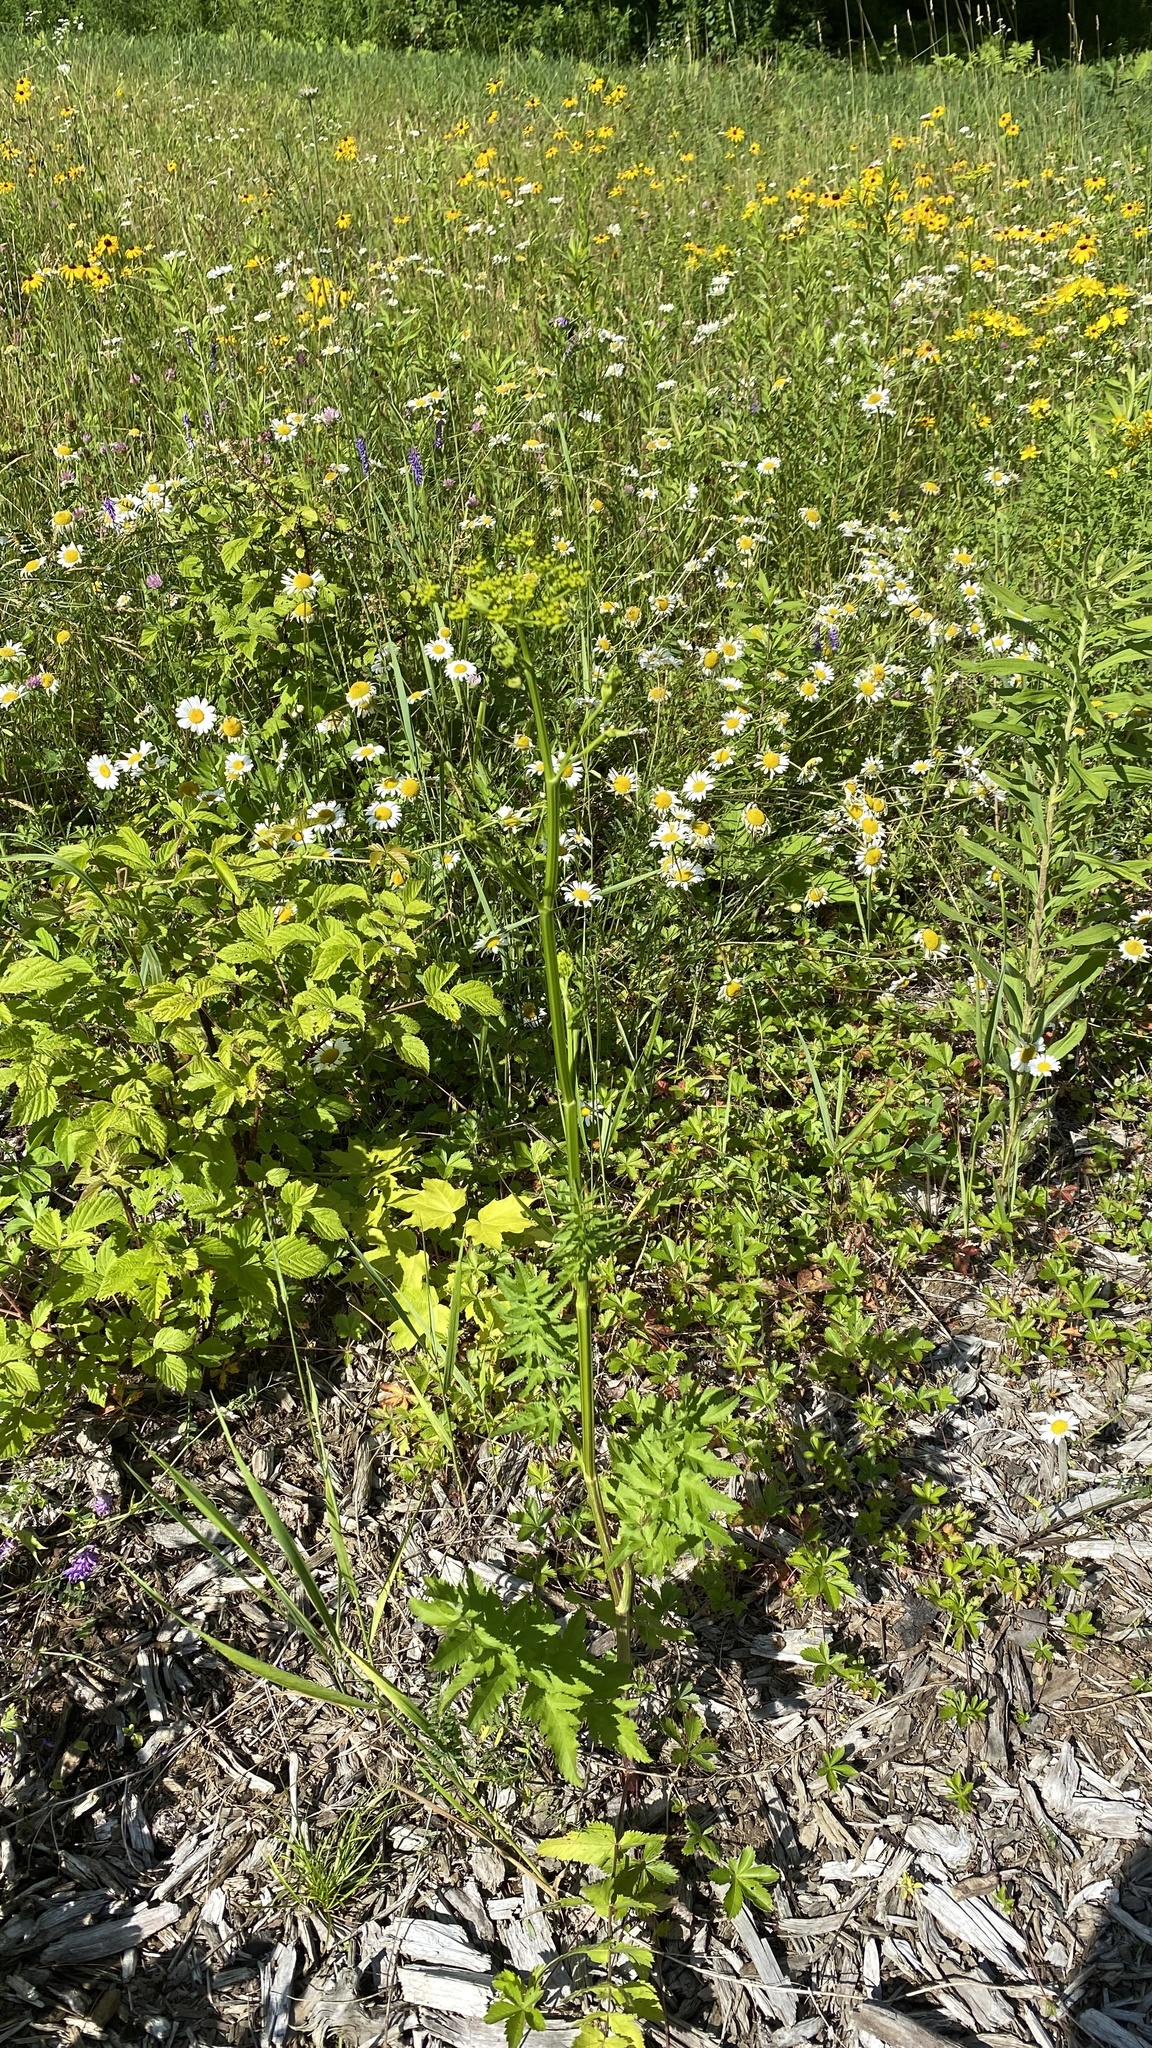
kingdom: Plantae
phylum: Tracheophyta
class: Magnoliopsida
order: Apiales
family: Apiaceae
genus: Pastinaca
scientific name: Pastinaca sativa
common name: Wild parsnip
